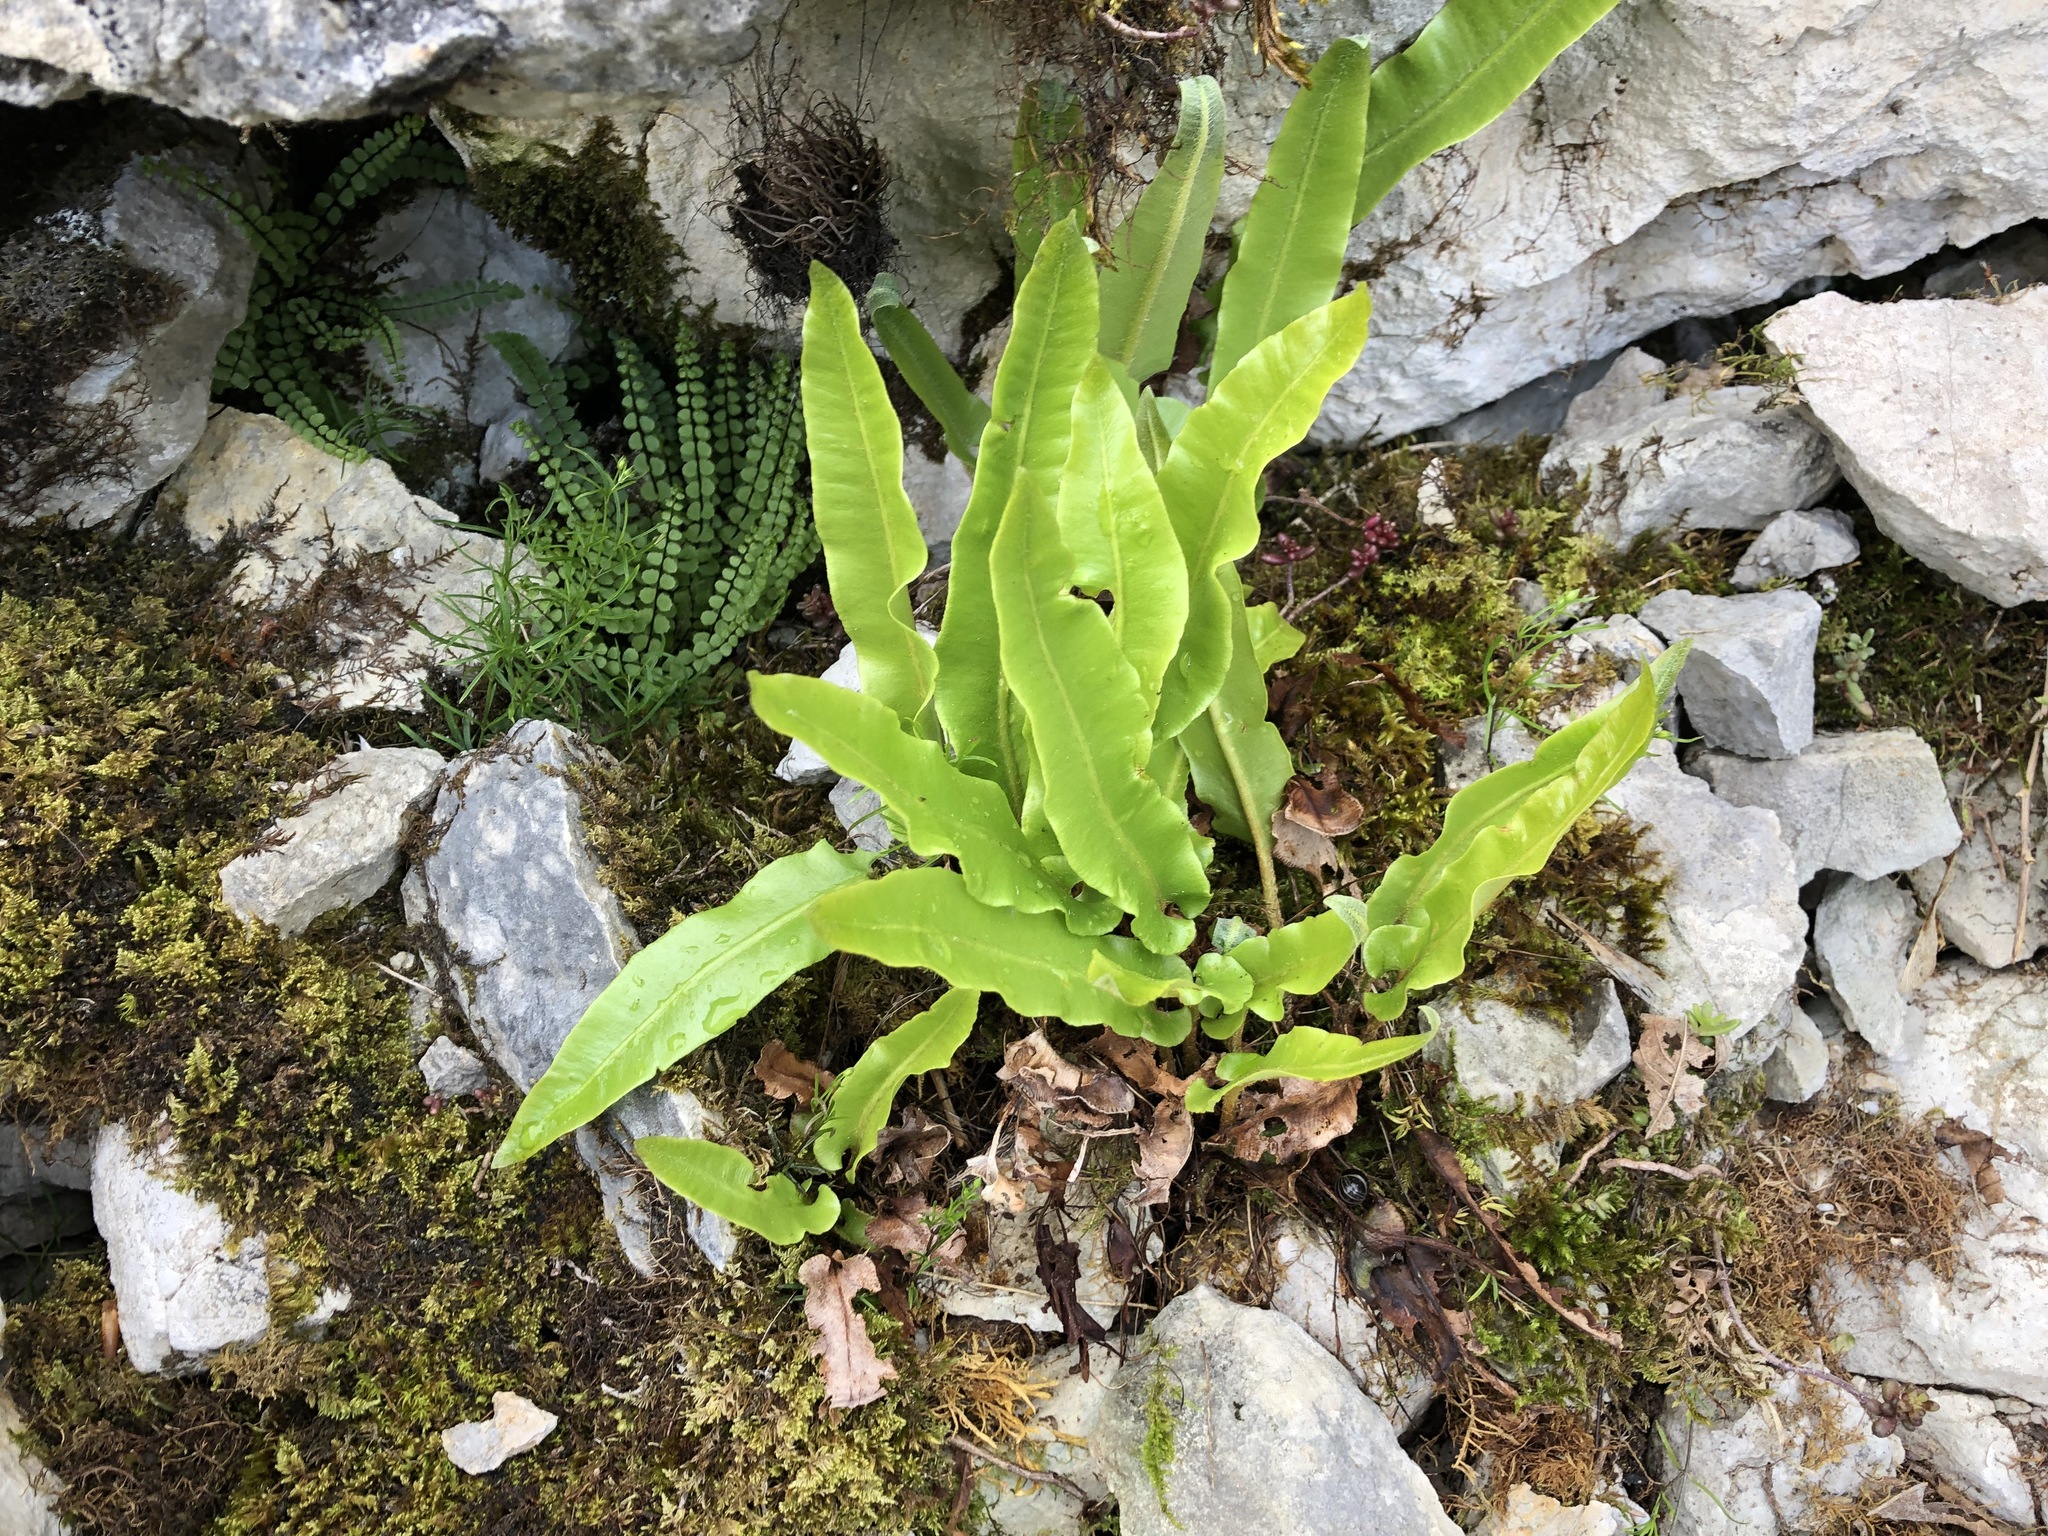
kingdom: Plantae
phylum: Tracheophyta
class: Polypodiopsida
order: Polypodiales
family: Aspleniaceae
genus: Asplenium
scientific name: Asplenium scolopendrium
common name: Hart's-tongue fern
